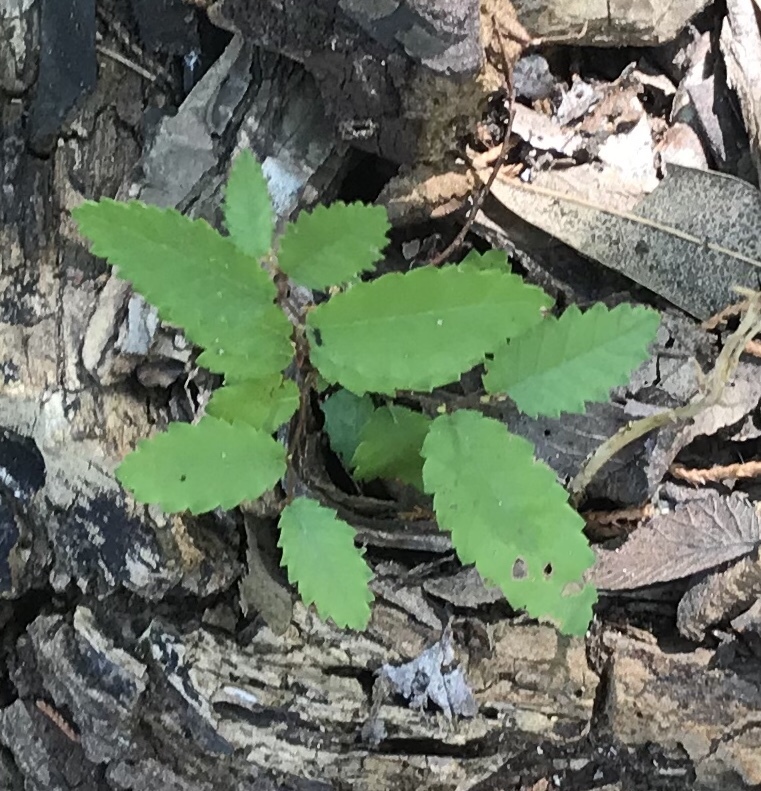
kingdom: Plantae
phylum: Tracheophyta
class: Magnoliopsida
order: Rosales
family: Ulmaceae
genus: Ulmus
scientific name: Ulmus crassifolia
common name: Basket elm
